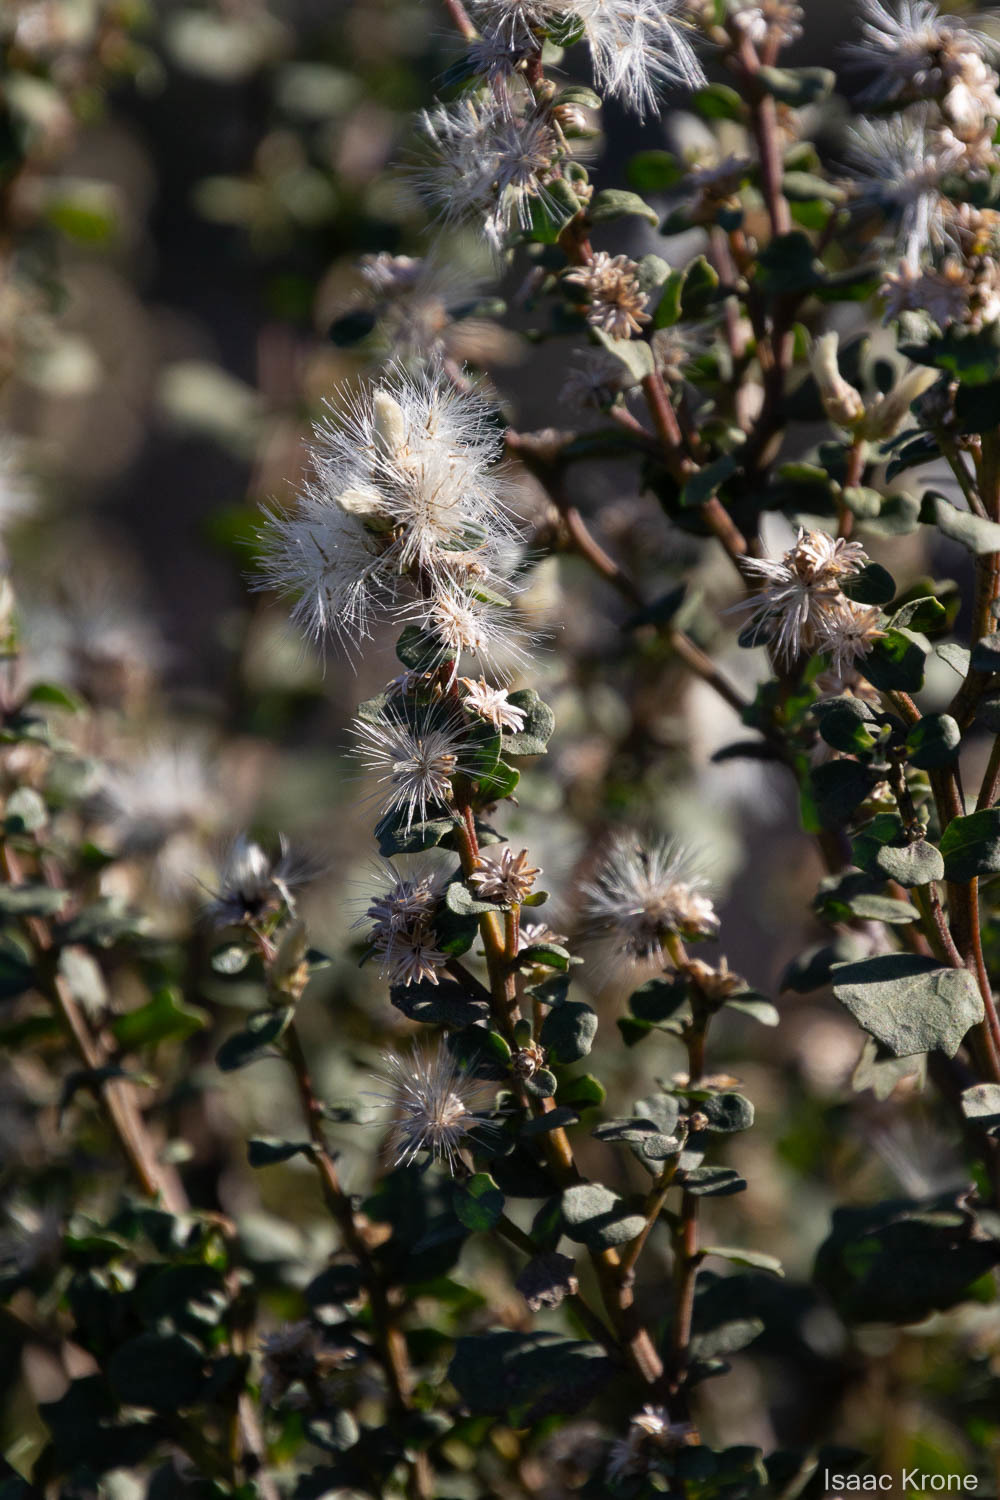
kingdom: Plantae
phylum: Tracheophyta
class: Magnoliopsida
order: Asterales
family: Asteraceae
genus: Baccharis
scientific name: Baccharis pilularis
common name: Coyotebrush
